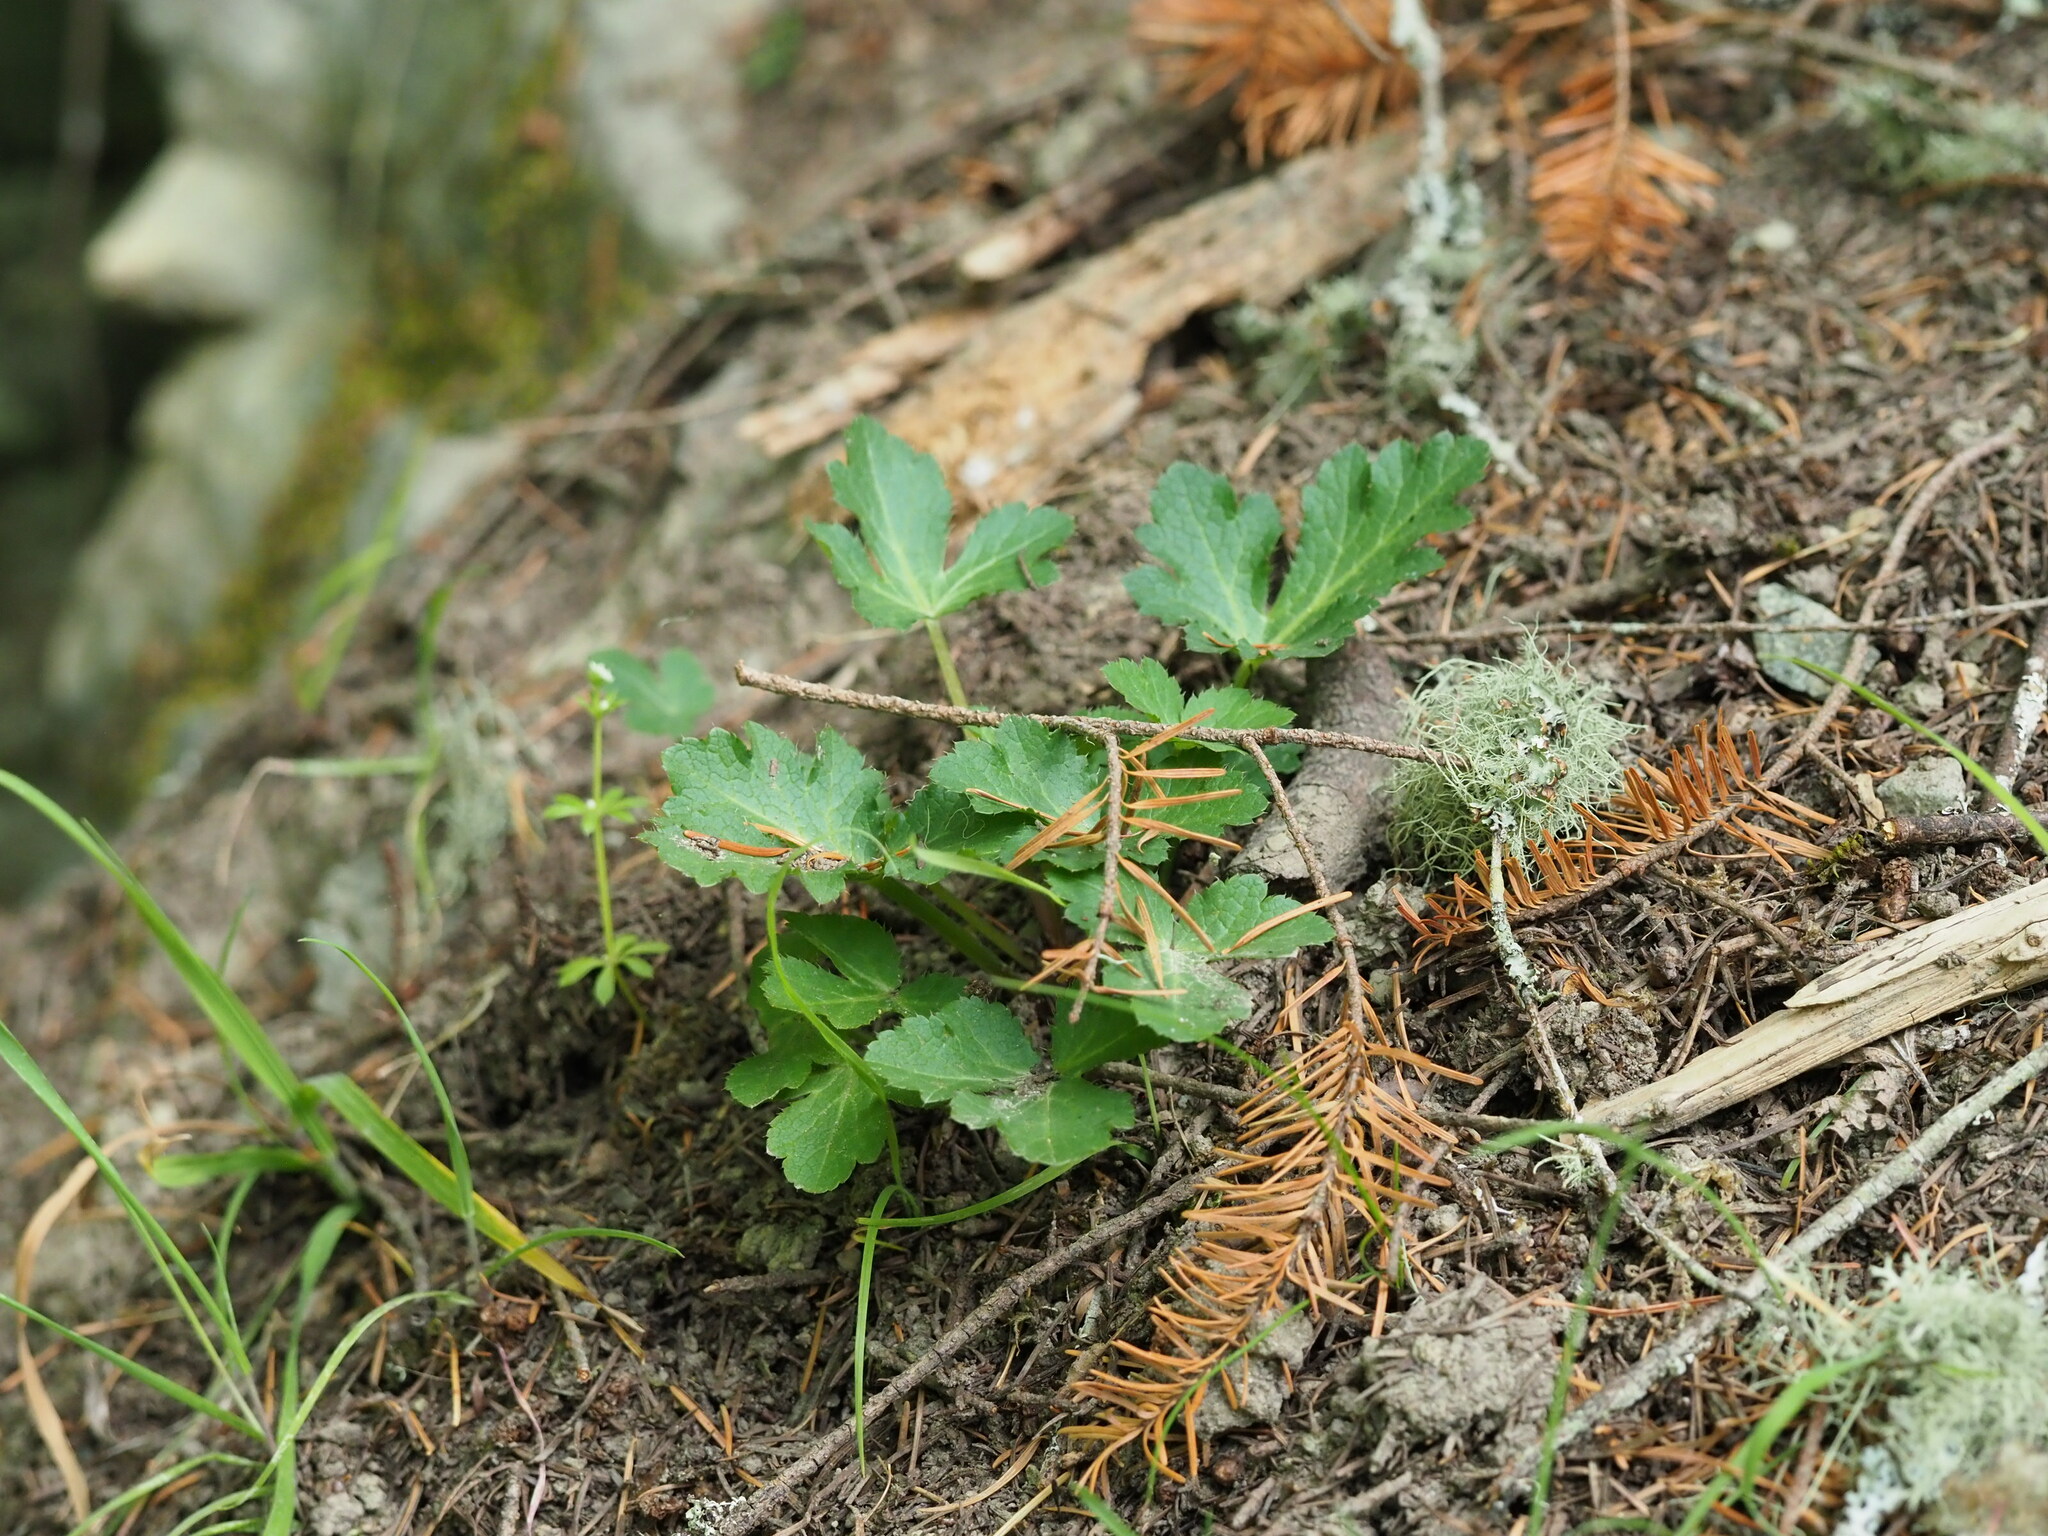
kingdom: Plantae
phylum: Tracheophyta
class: Magnoliopsida
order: Apiales
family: Apiaceae
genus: Sanicula
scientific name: Sanicula crassicaulis
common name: Western snakeroot
